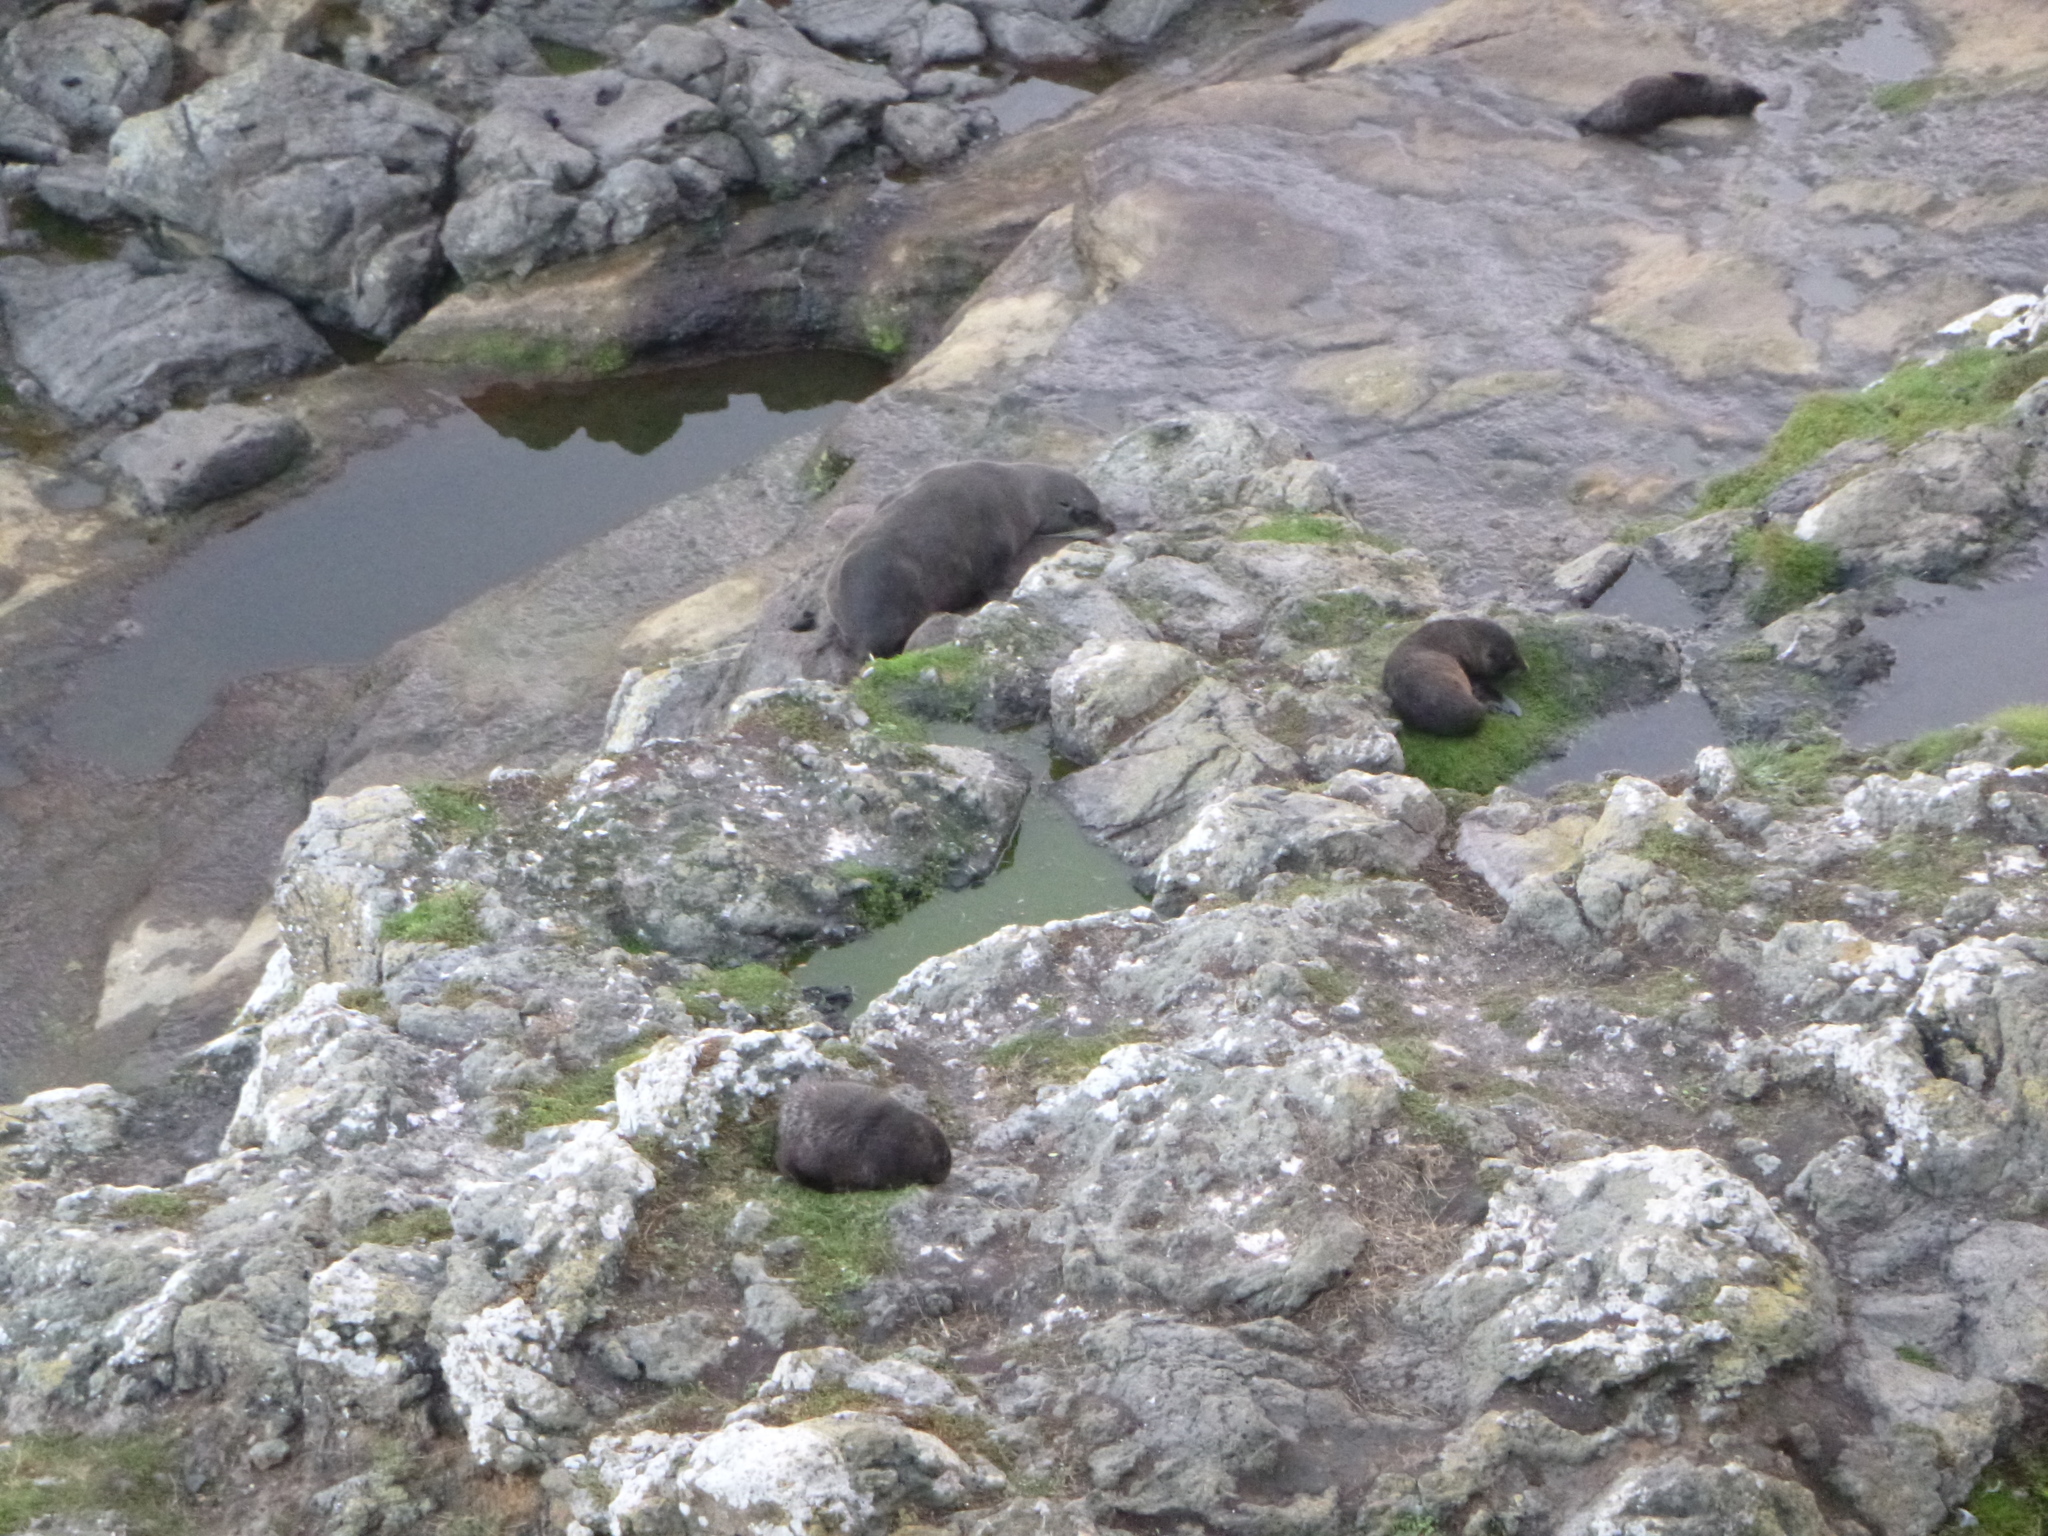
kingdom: Animalia
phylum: Chordata
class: Mammalia
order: Carnivora
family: Otariidae
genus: Arctocephalus
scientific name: Arctocephalus forsteri
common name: New zealand fur seal
